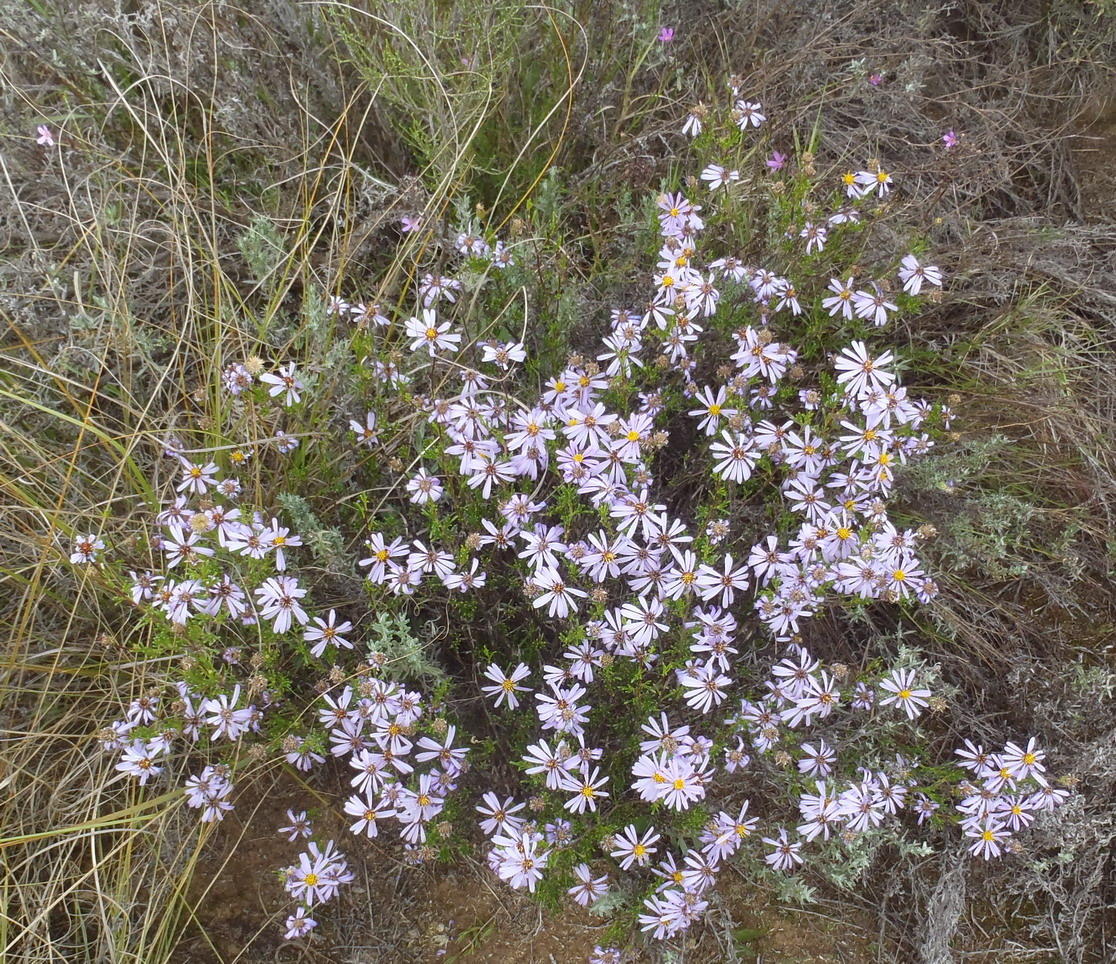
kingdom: Plantae
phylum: Tracheophyta
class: Magnoliopsida
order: Asterales
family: Asteraceae
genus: Felicia
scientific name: Felicia filifolia
